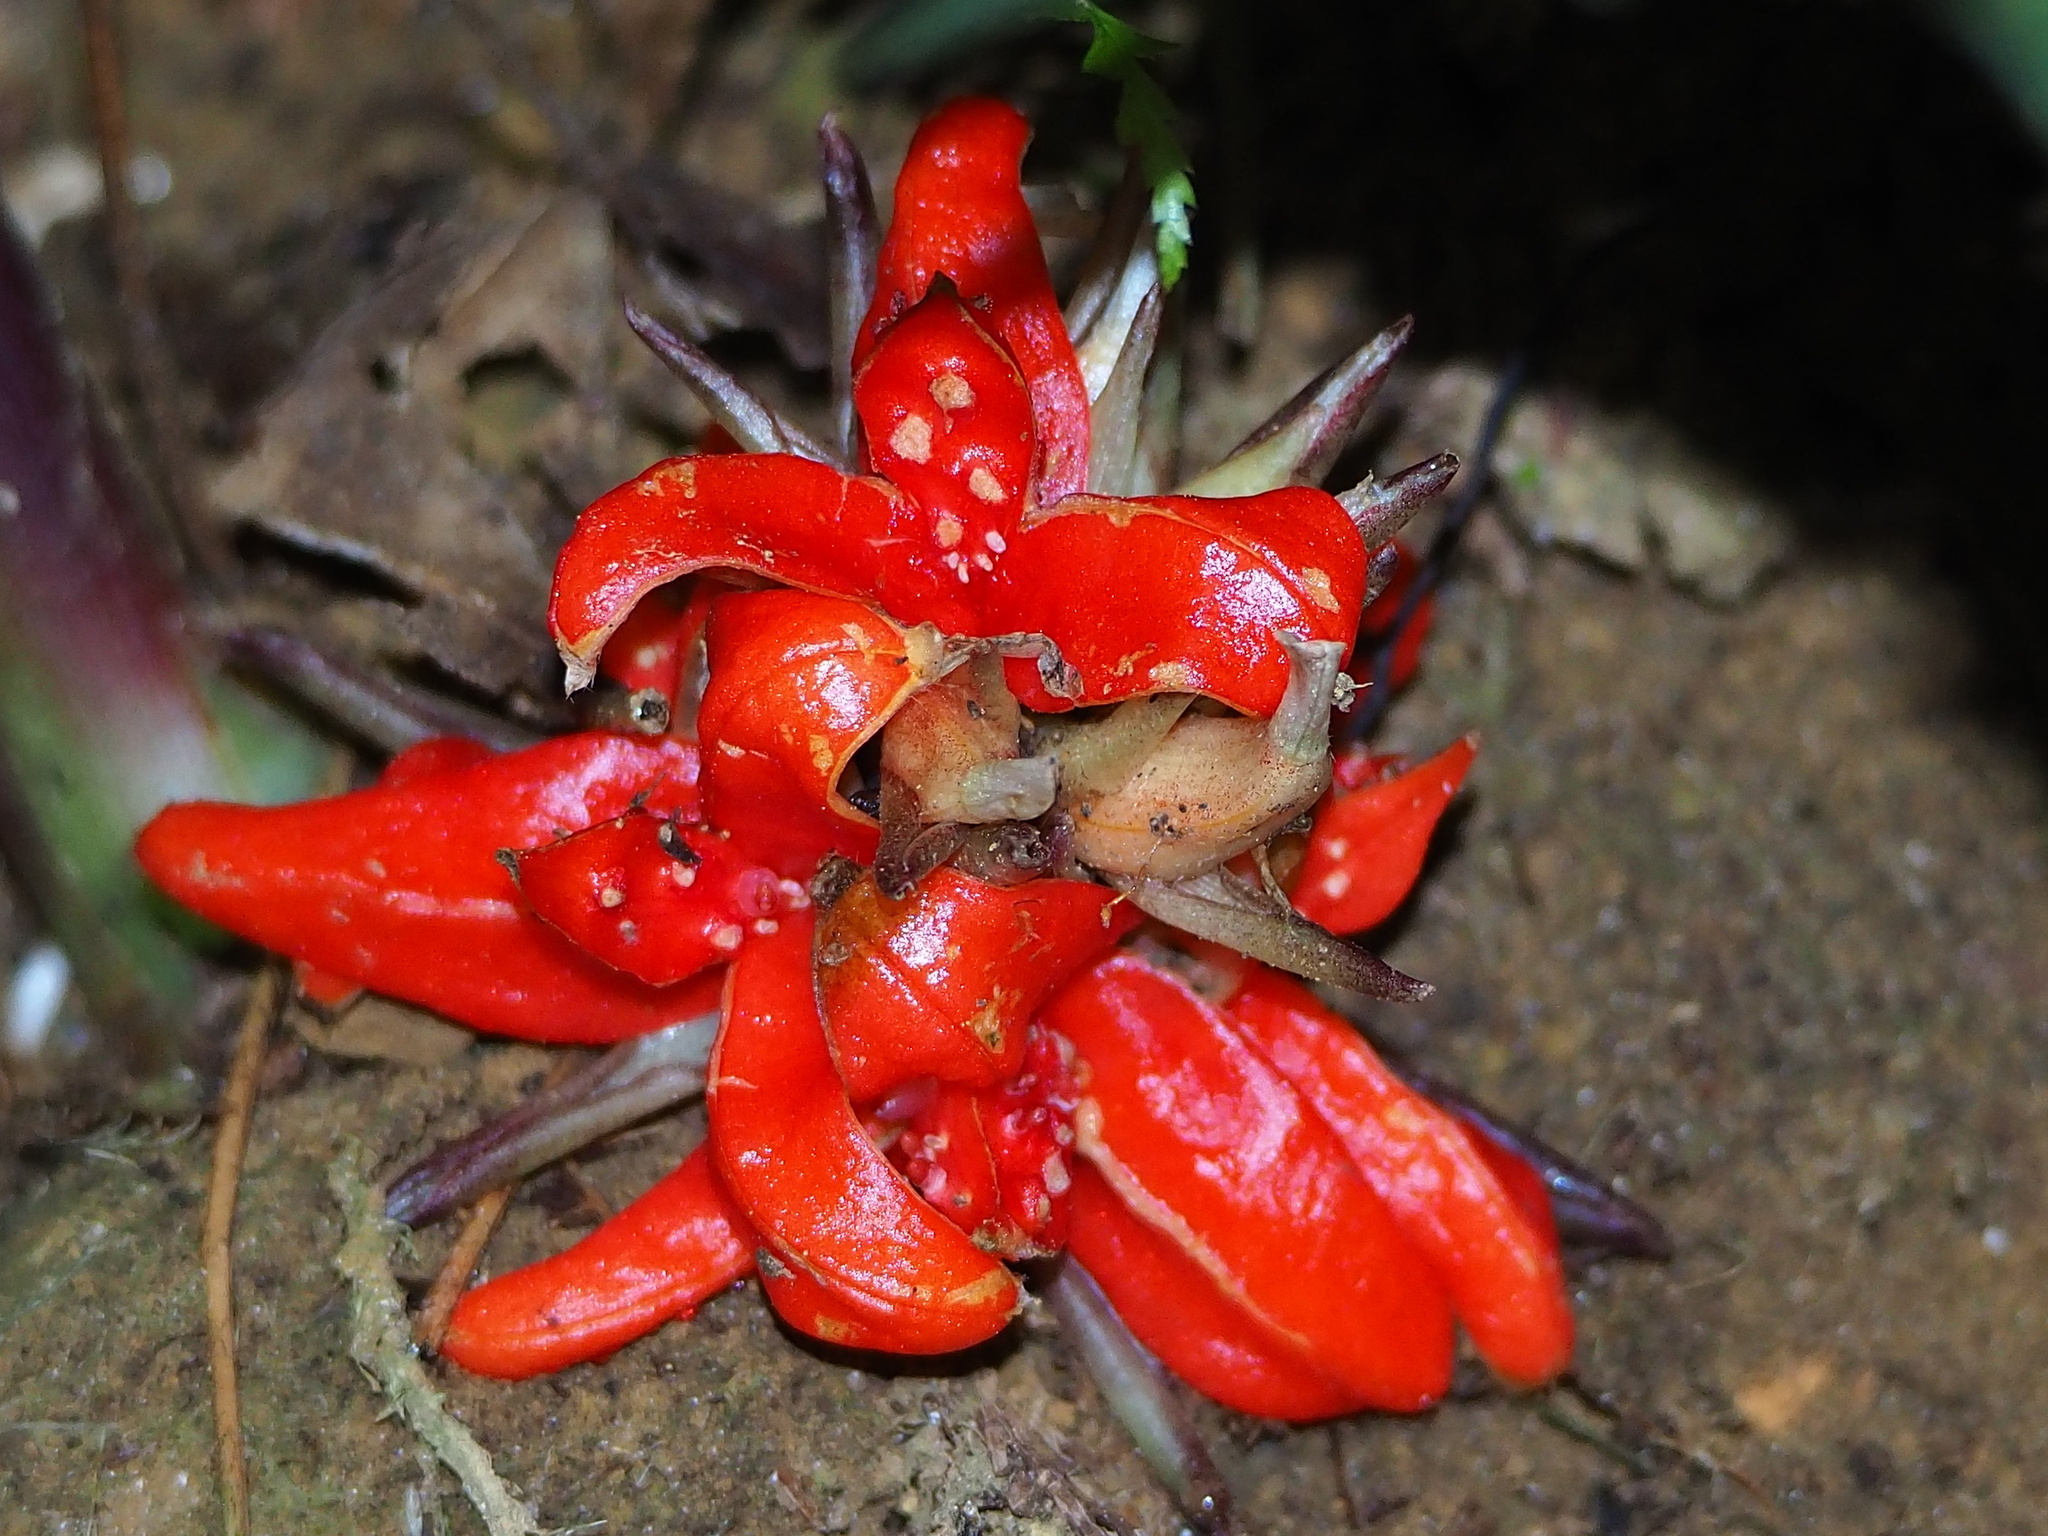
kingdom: Plantae
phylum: Tracheophyta
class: Liliopsida
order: Zingiberales
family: Zingiberaceae
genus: Zingiber
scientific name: Zingiber kawagoii
